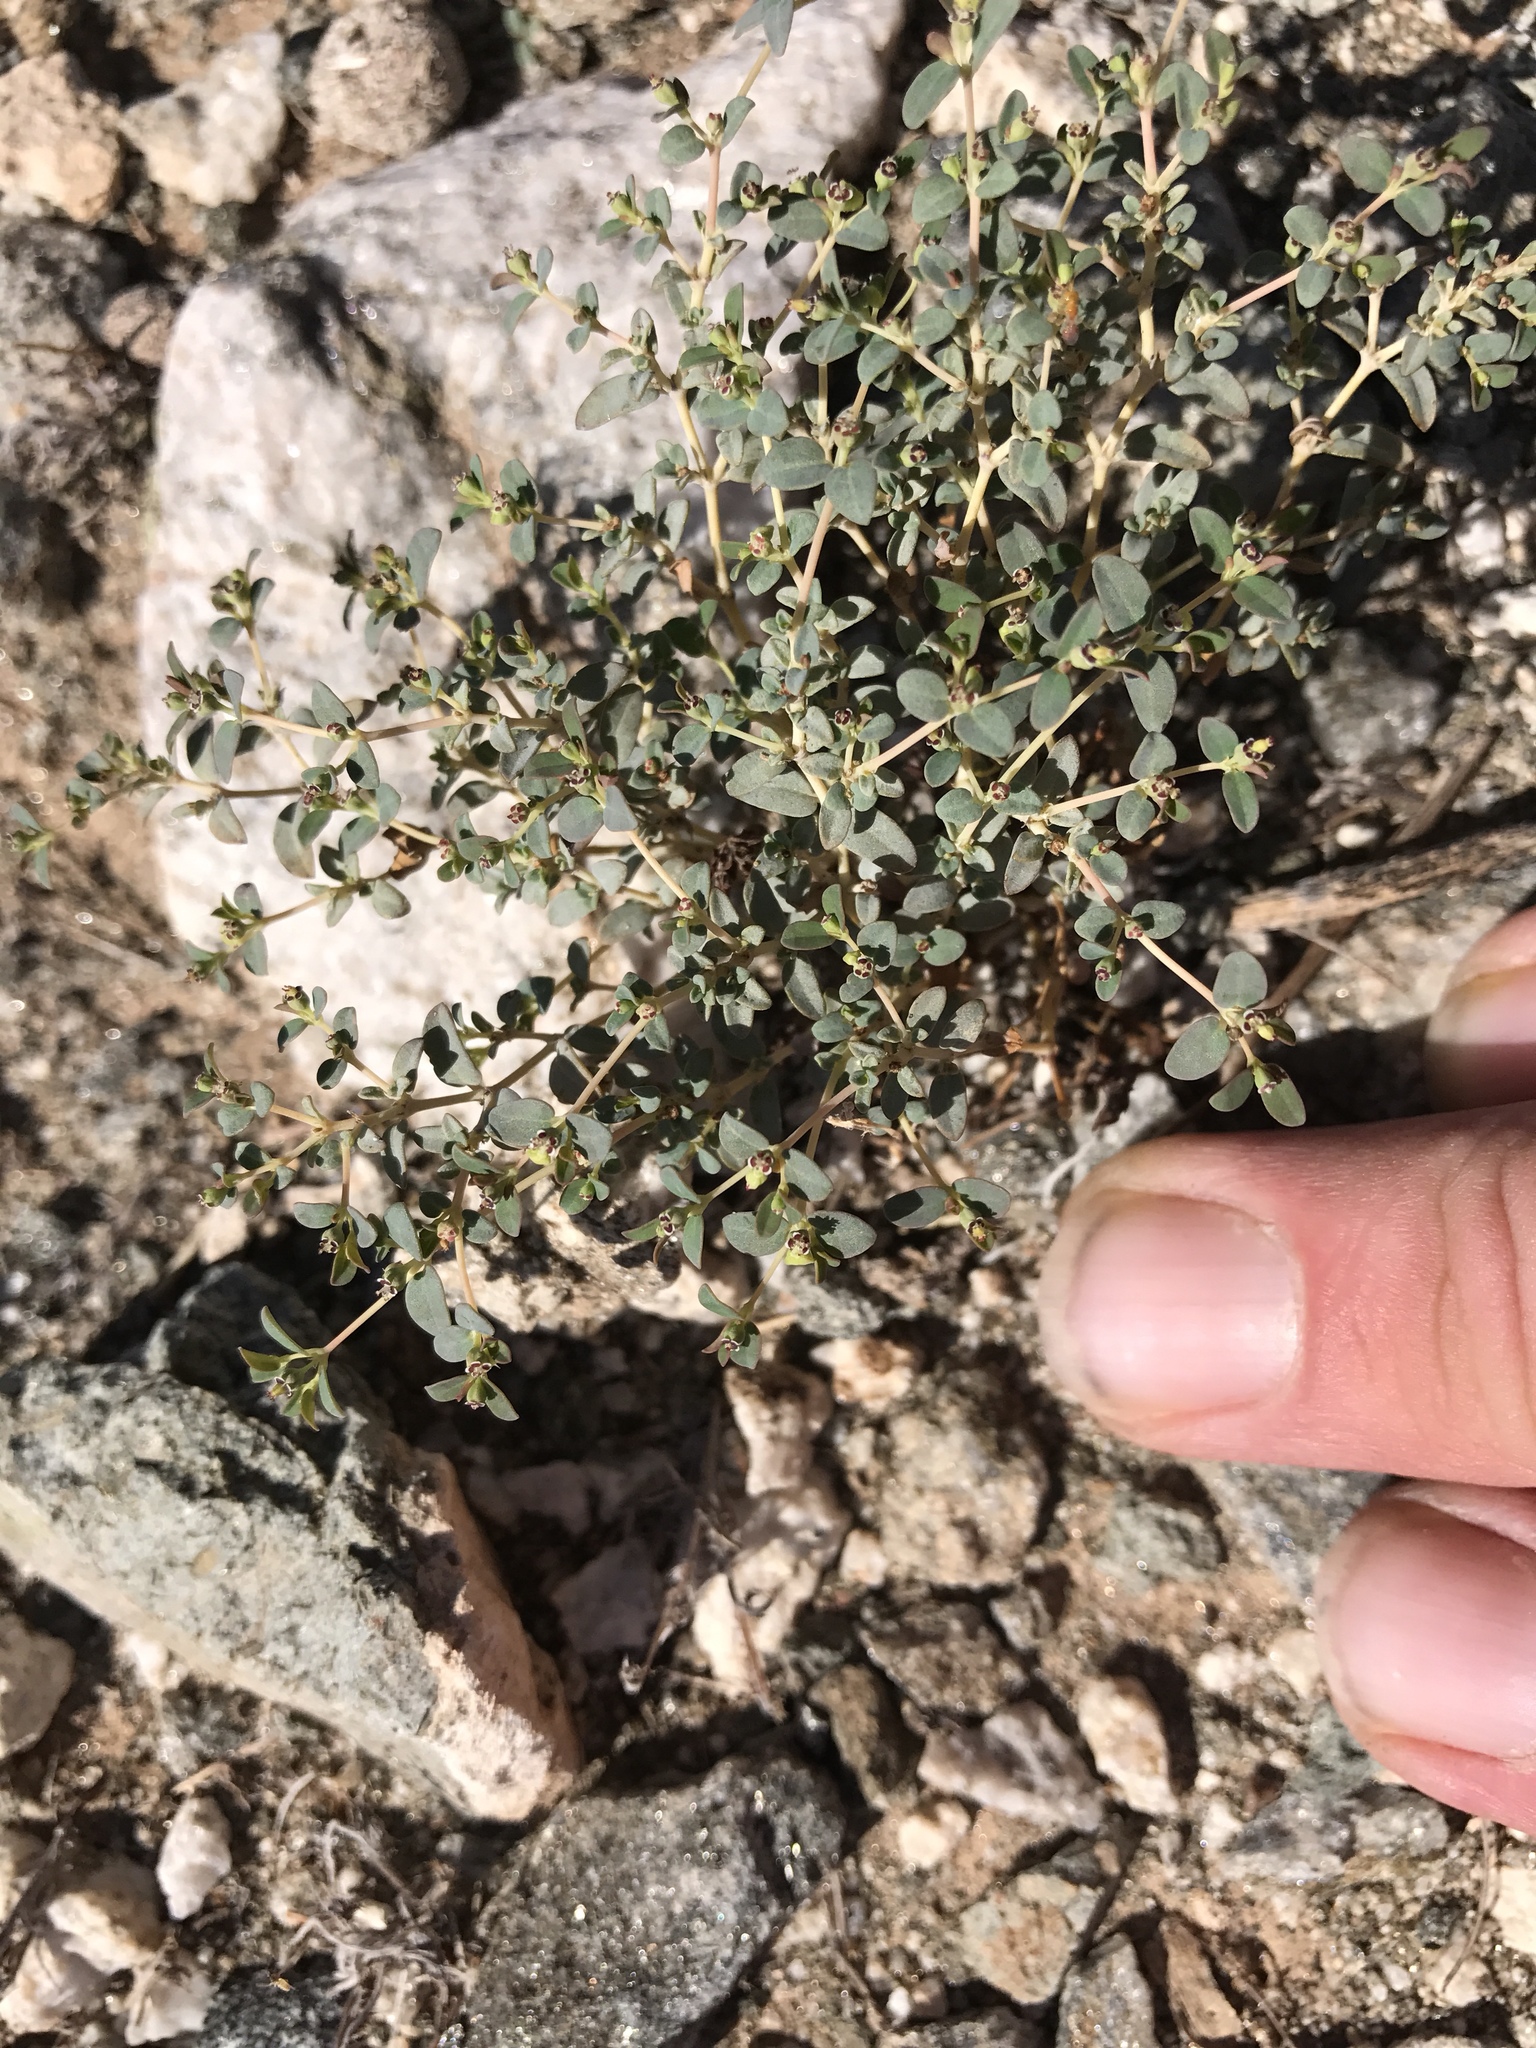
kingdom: Plantae
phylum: Tracheophyta
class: Magnoliopsida
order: Malpighiales
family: Euphorbiaceae
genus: Euphorbia
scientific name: Euphorbia polycarpa
